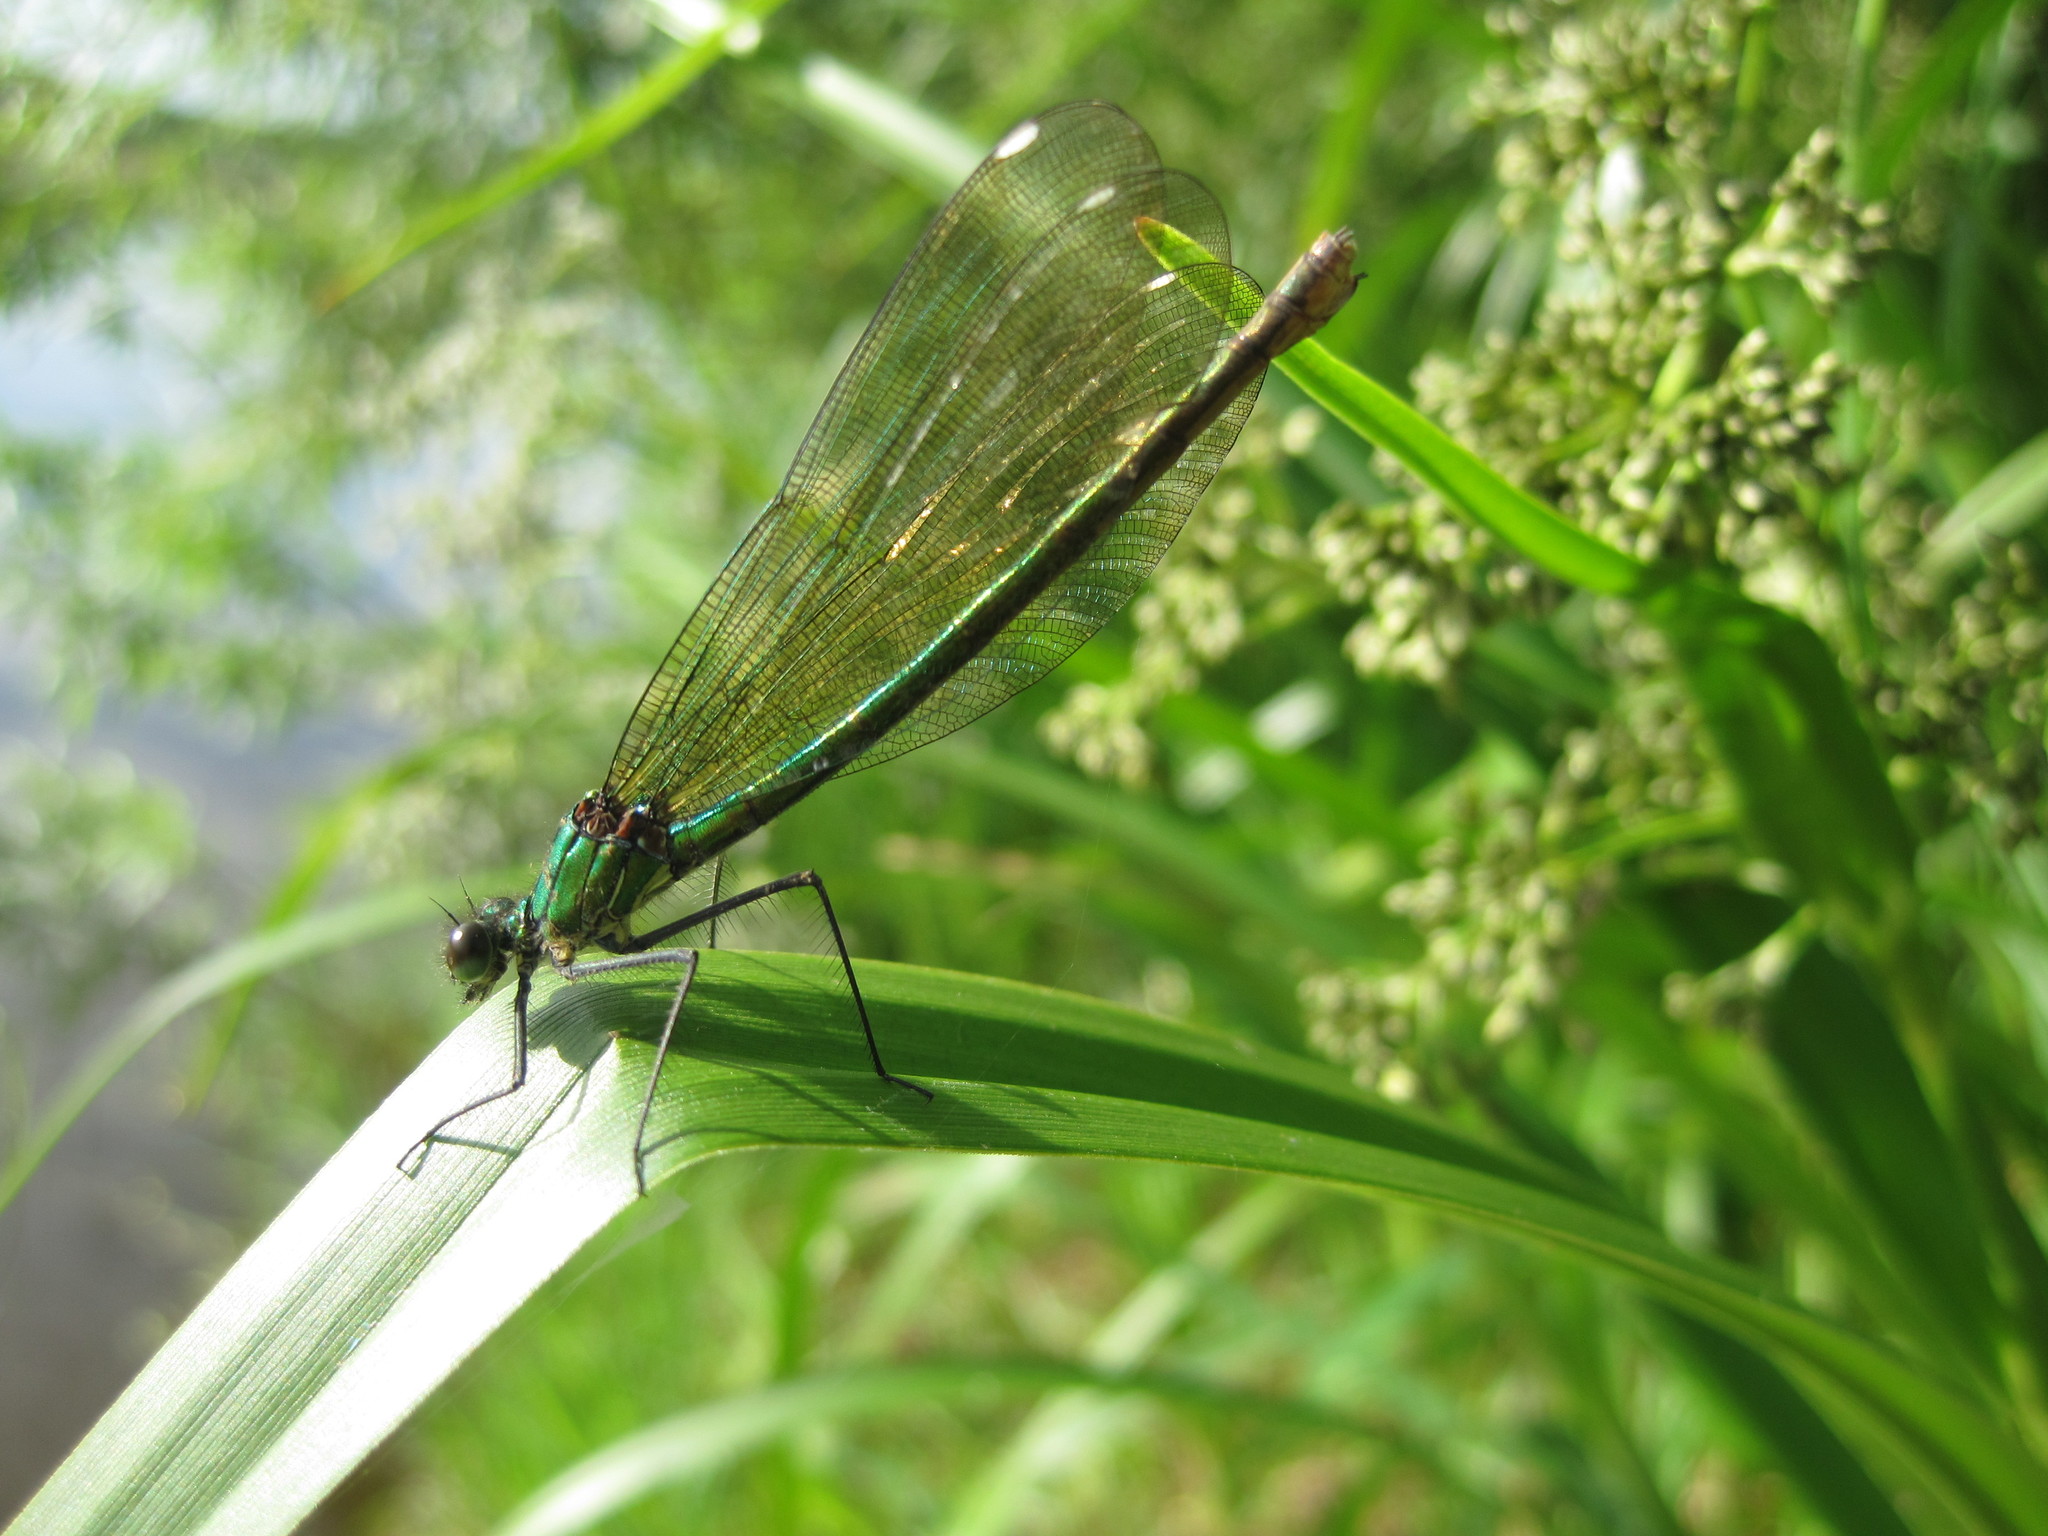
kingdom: Animalia
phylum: Arthropoda
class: Insecta
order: Odonata
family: Calopterygidae
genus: Calopteryx
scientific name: Calopteryx splendens
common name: Banded demoiselle
